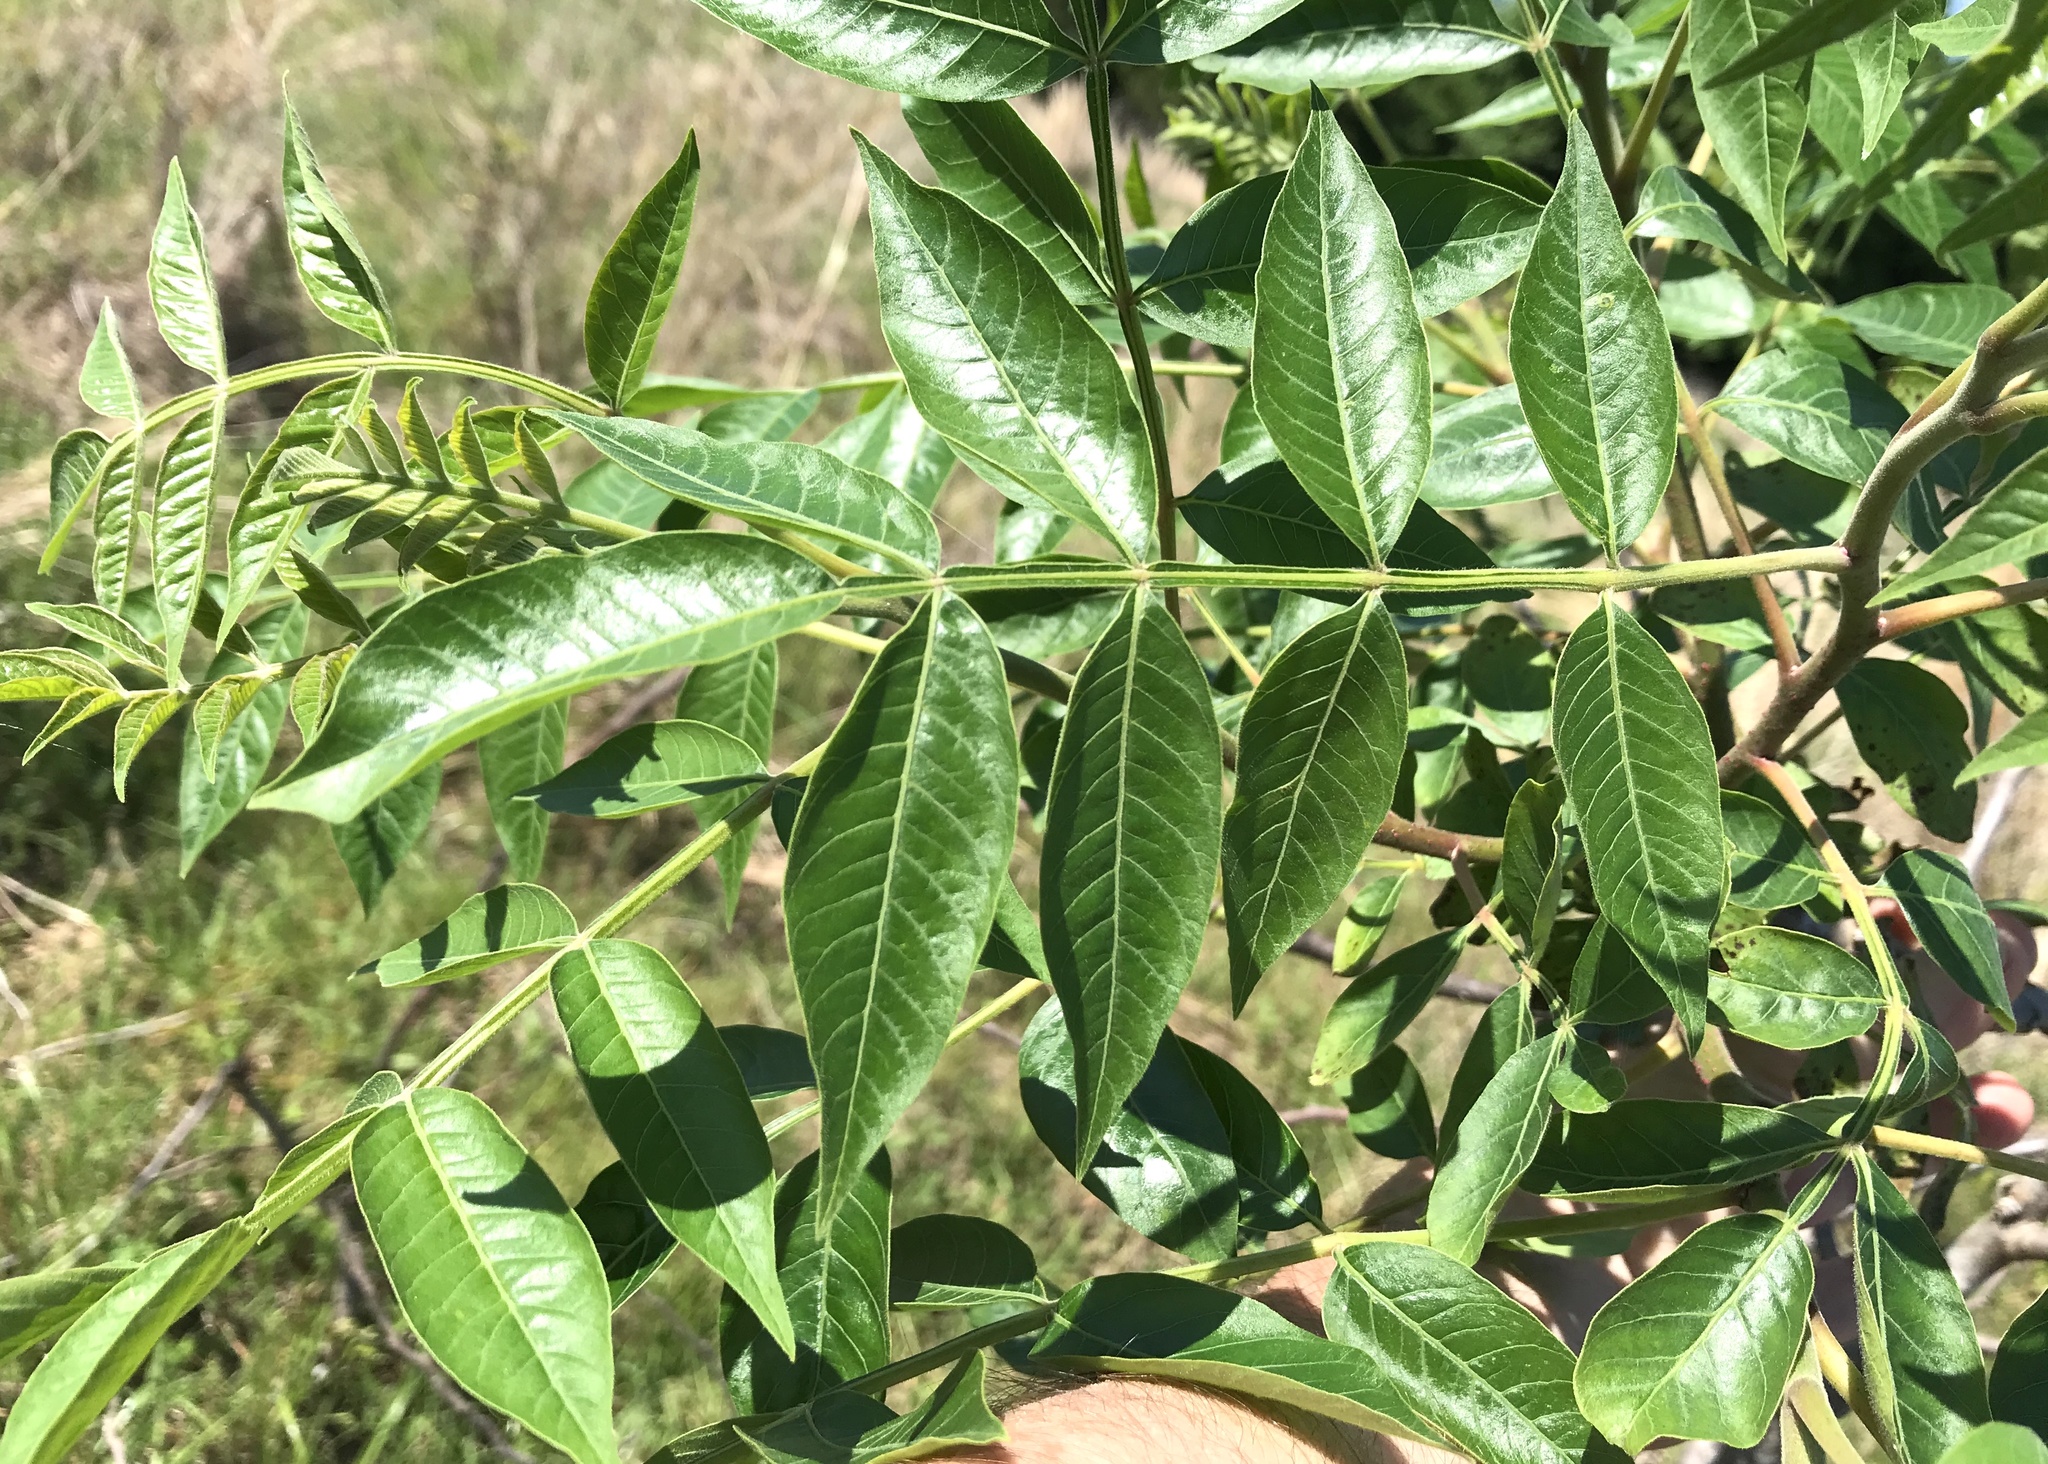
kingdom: Plantae
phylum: Tracheophyta
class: Magnoliopsida
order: Sapindales
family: Anacardiaceae
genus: Rhus
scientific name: Rhus copallina
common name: Shining sumac
